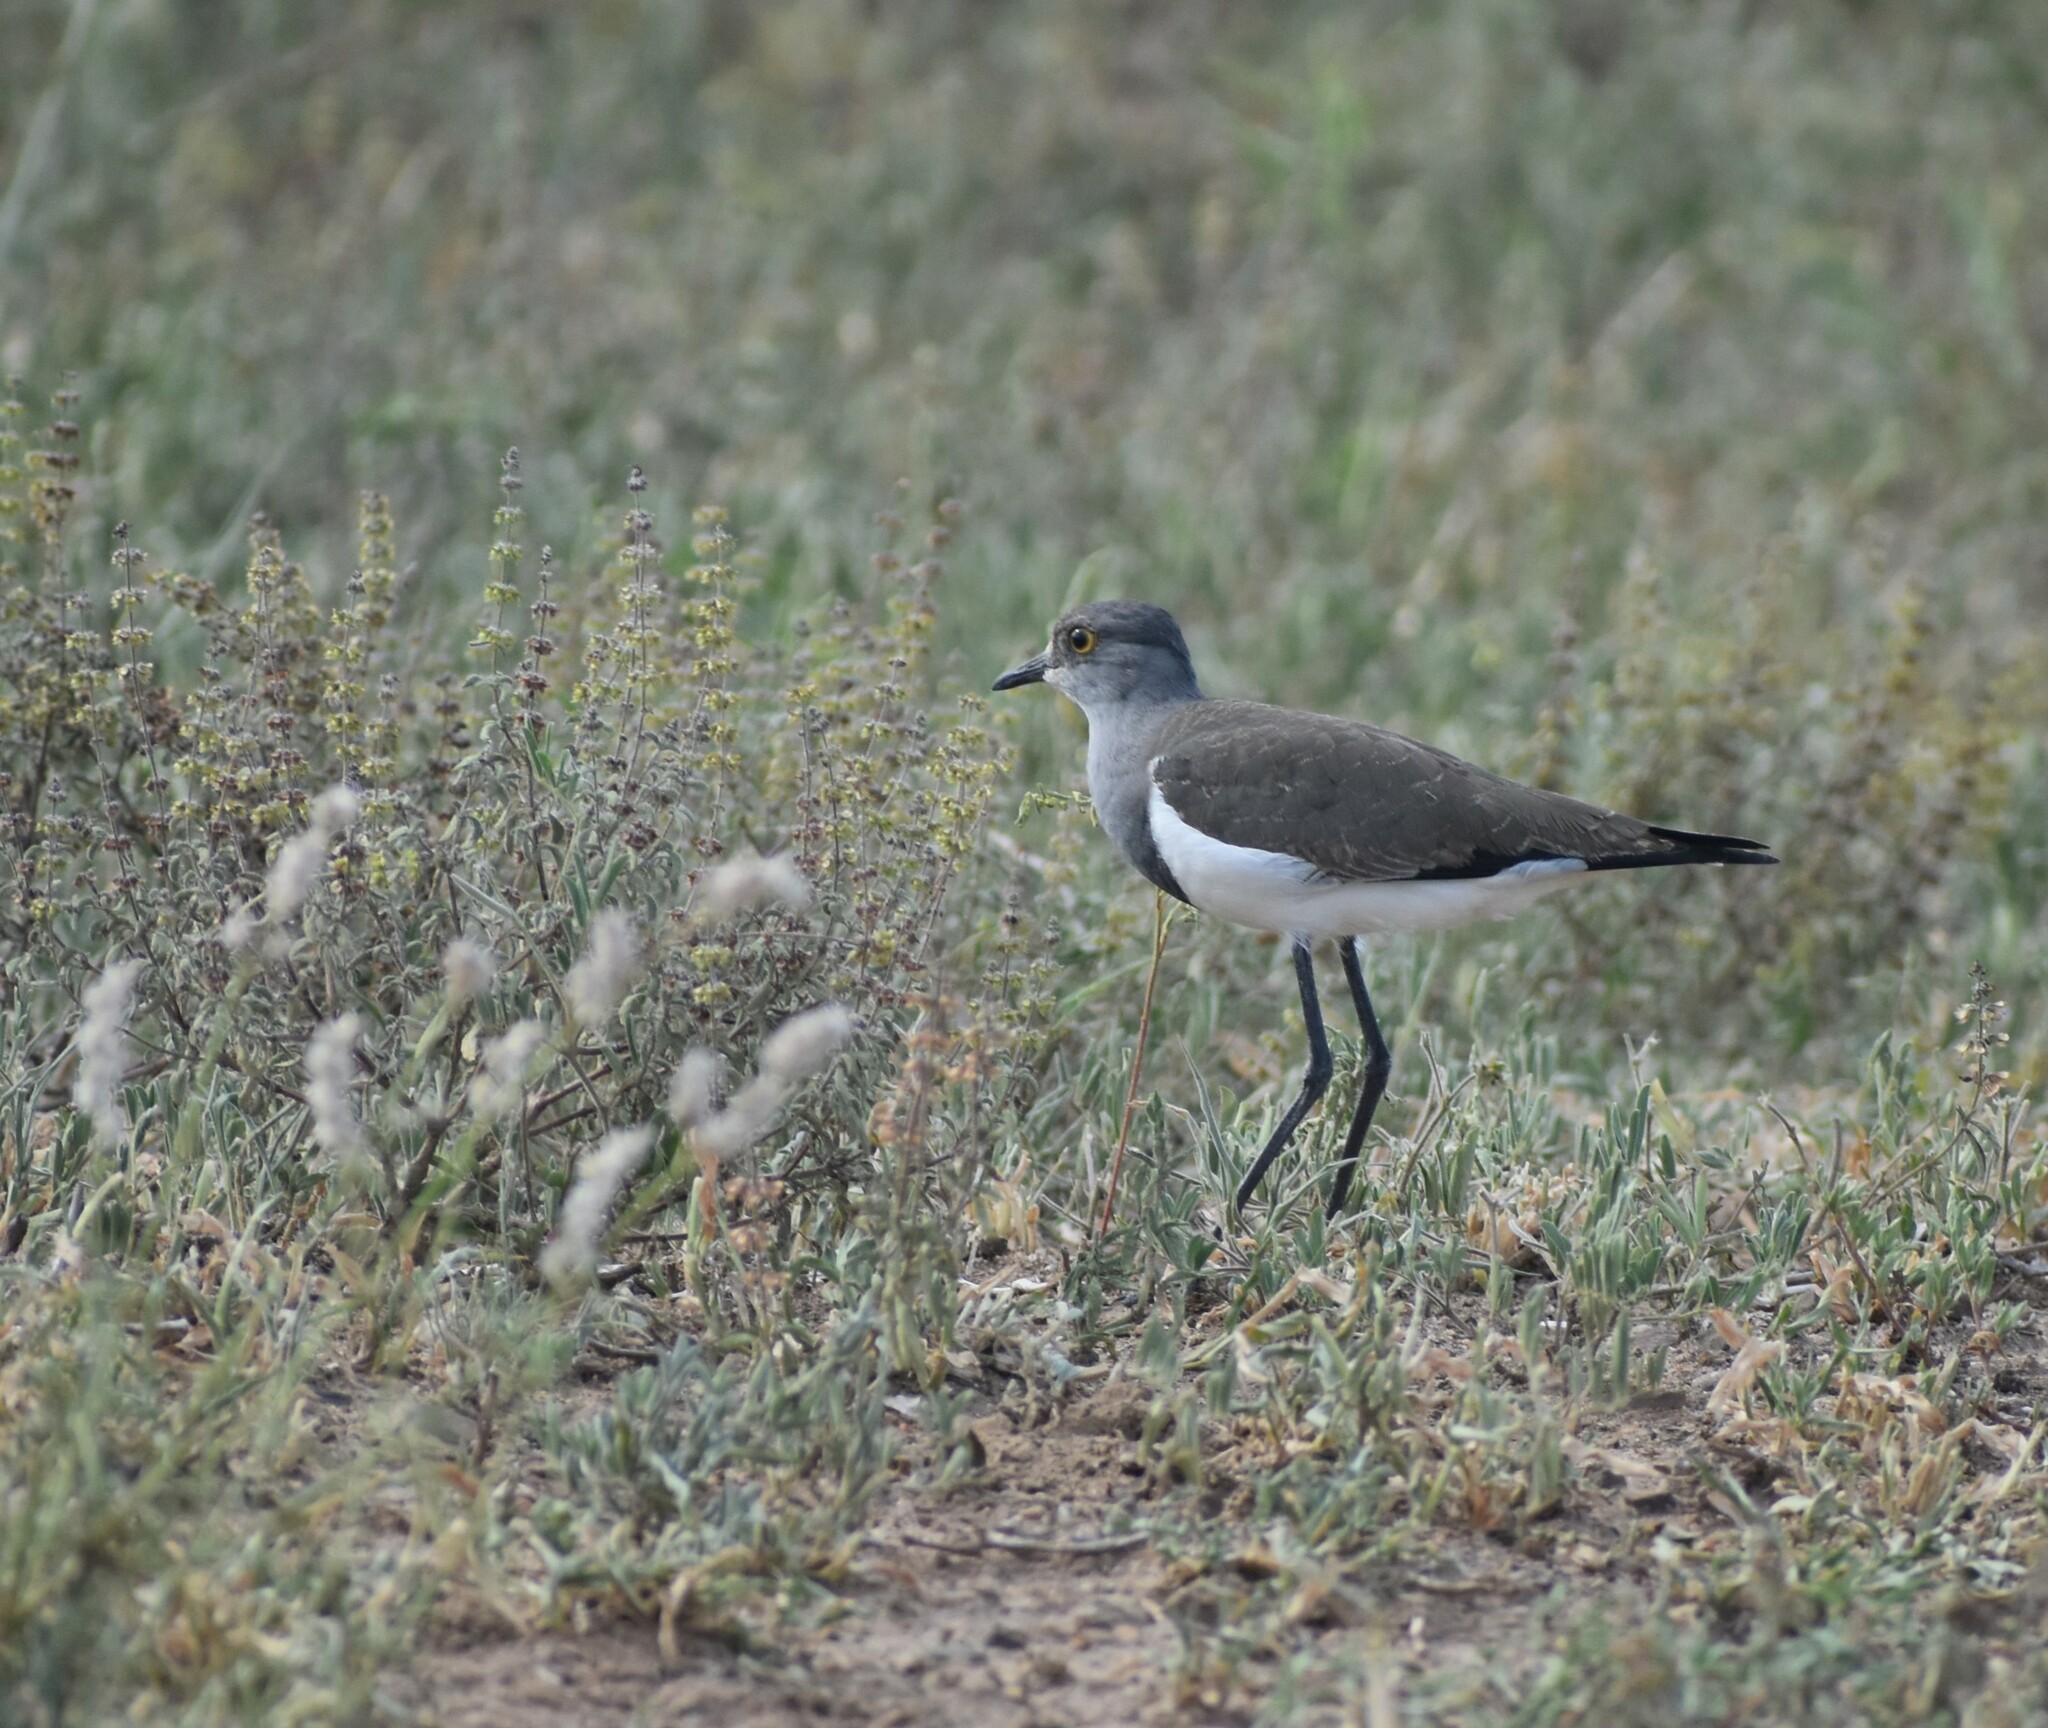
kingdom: Animalia
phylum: Chordata
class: Aves
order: Charadriiformes
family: Charadriidae
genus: Vanellus
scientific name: Vanellus lugubris
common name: Senegal lapwing
